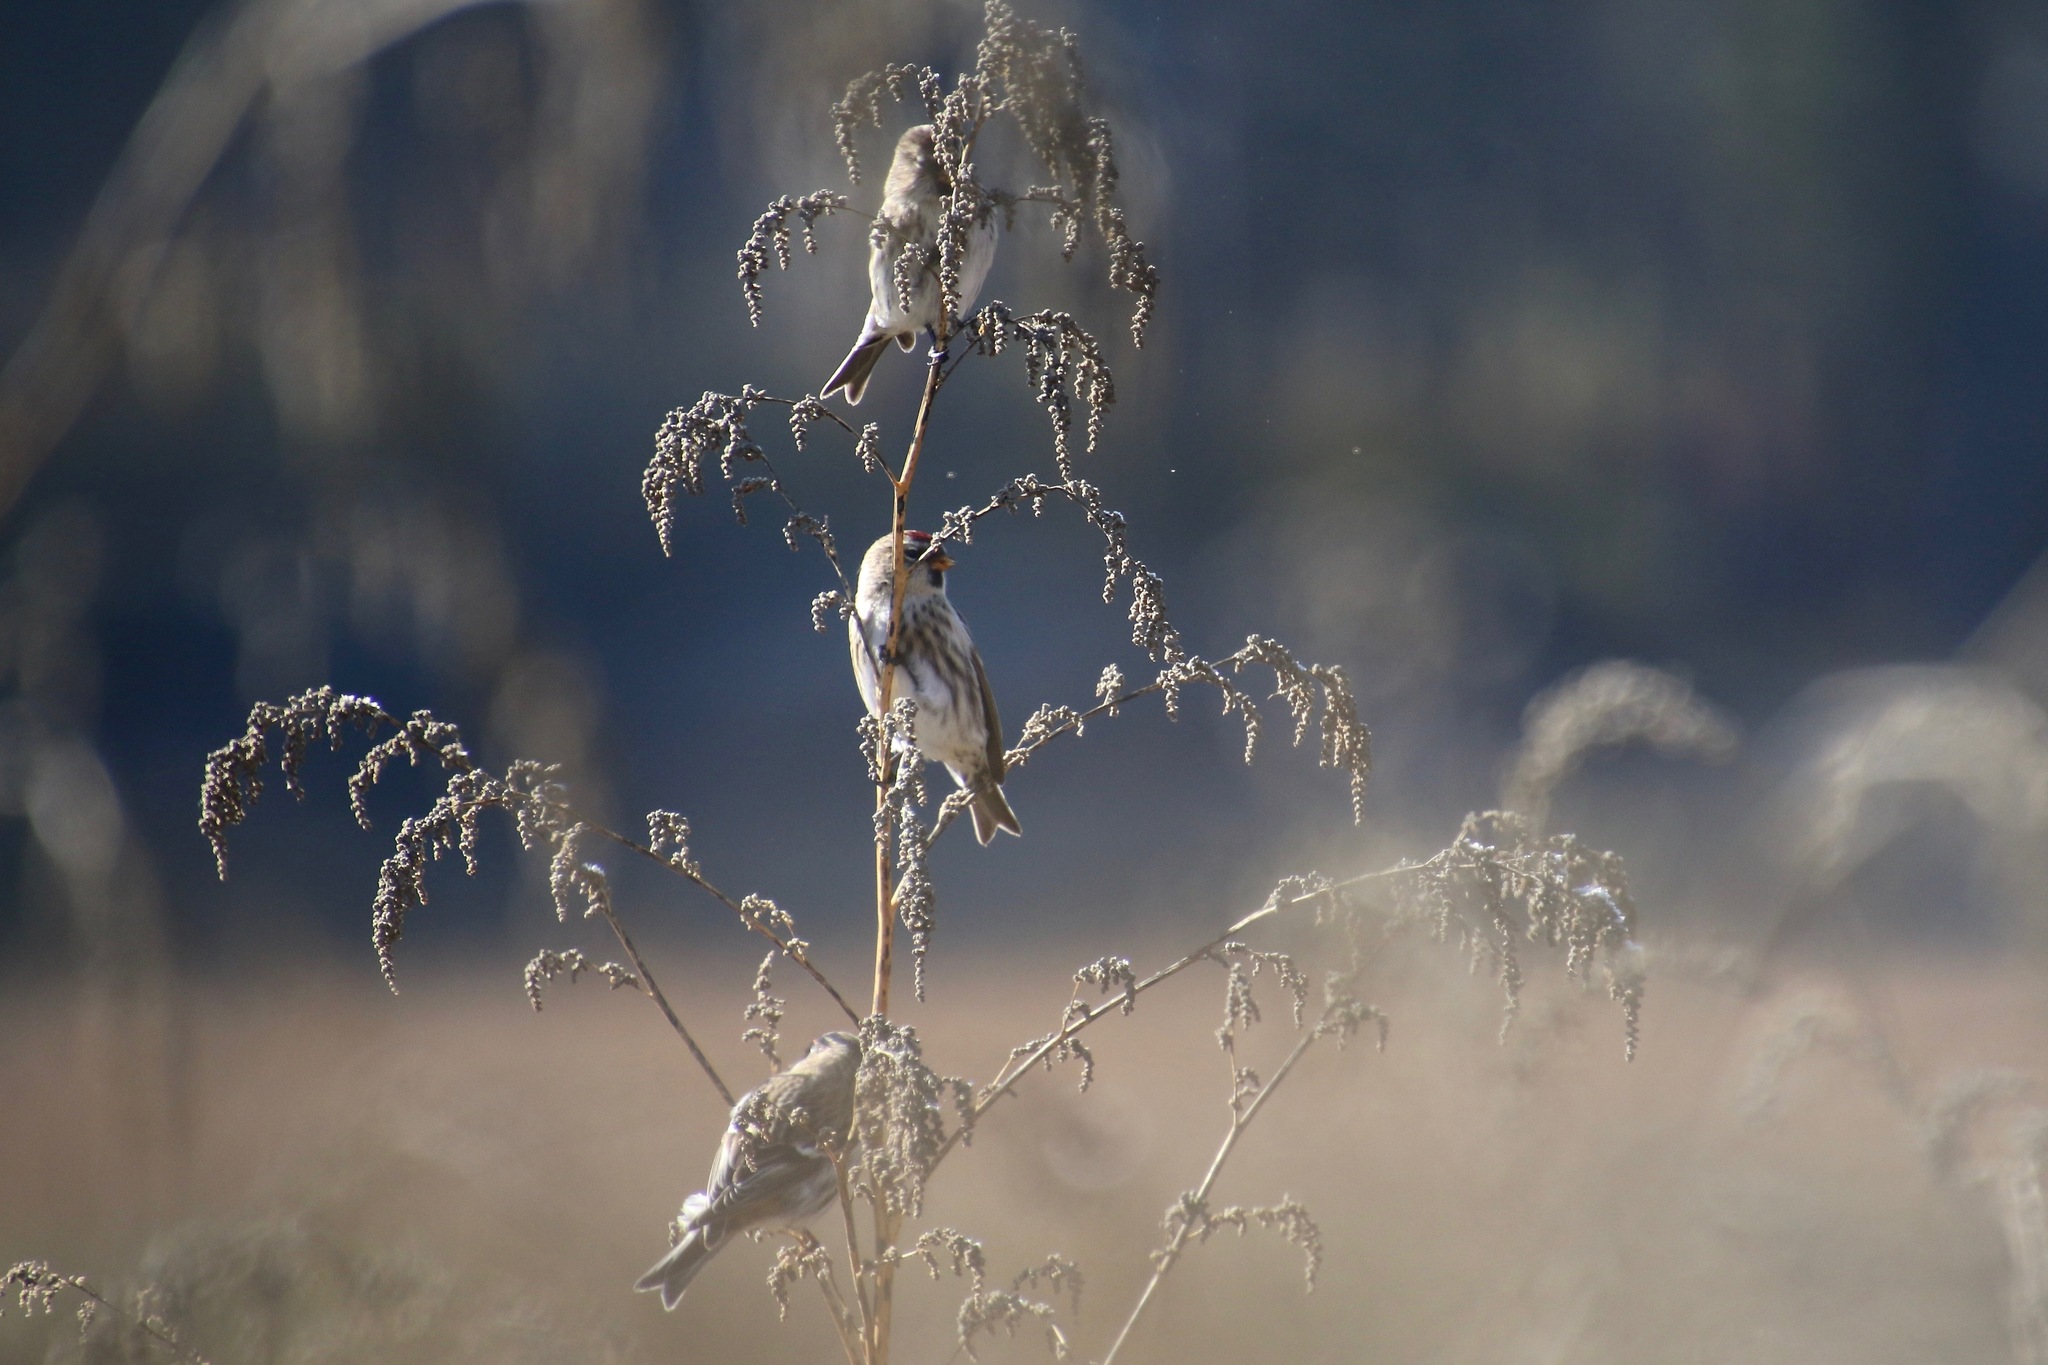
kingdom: Animalia
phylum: Chordata
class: Aves
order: Passeriformes
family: Fringillidae
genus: Acanthis
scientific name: Acanthis flammea
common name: Common redpoll
